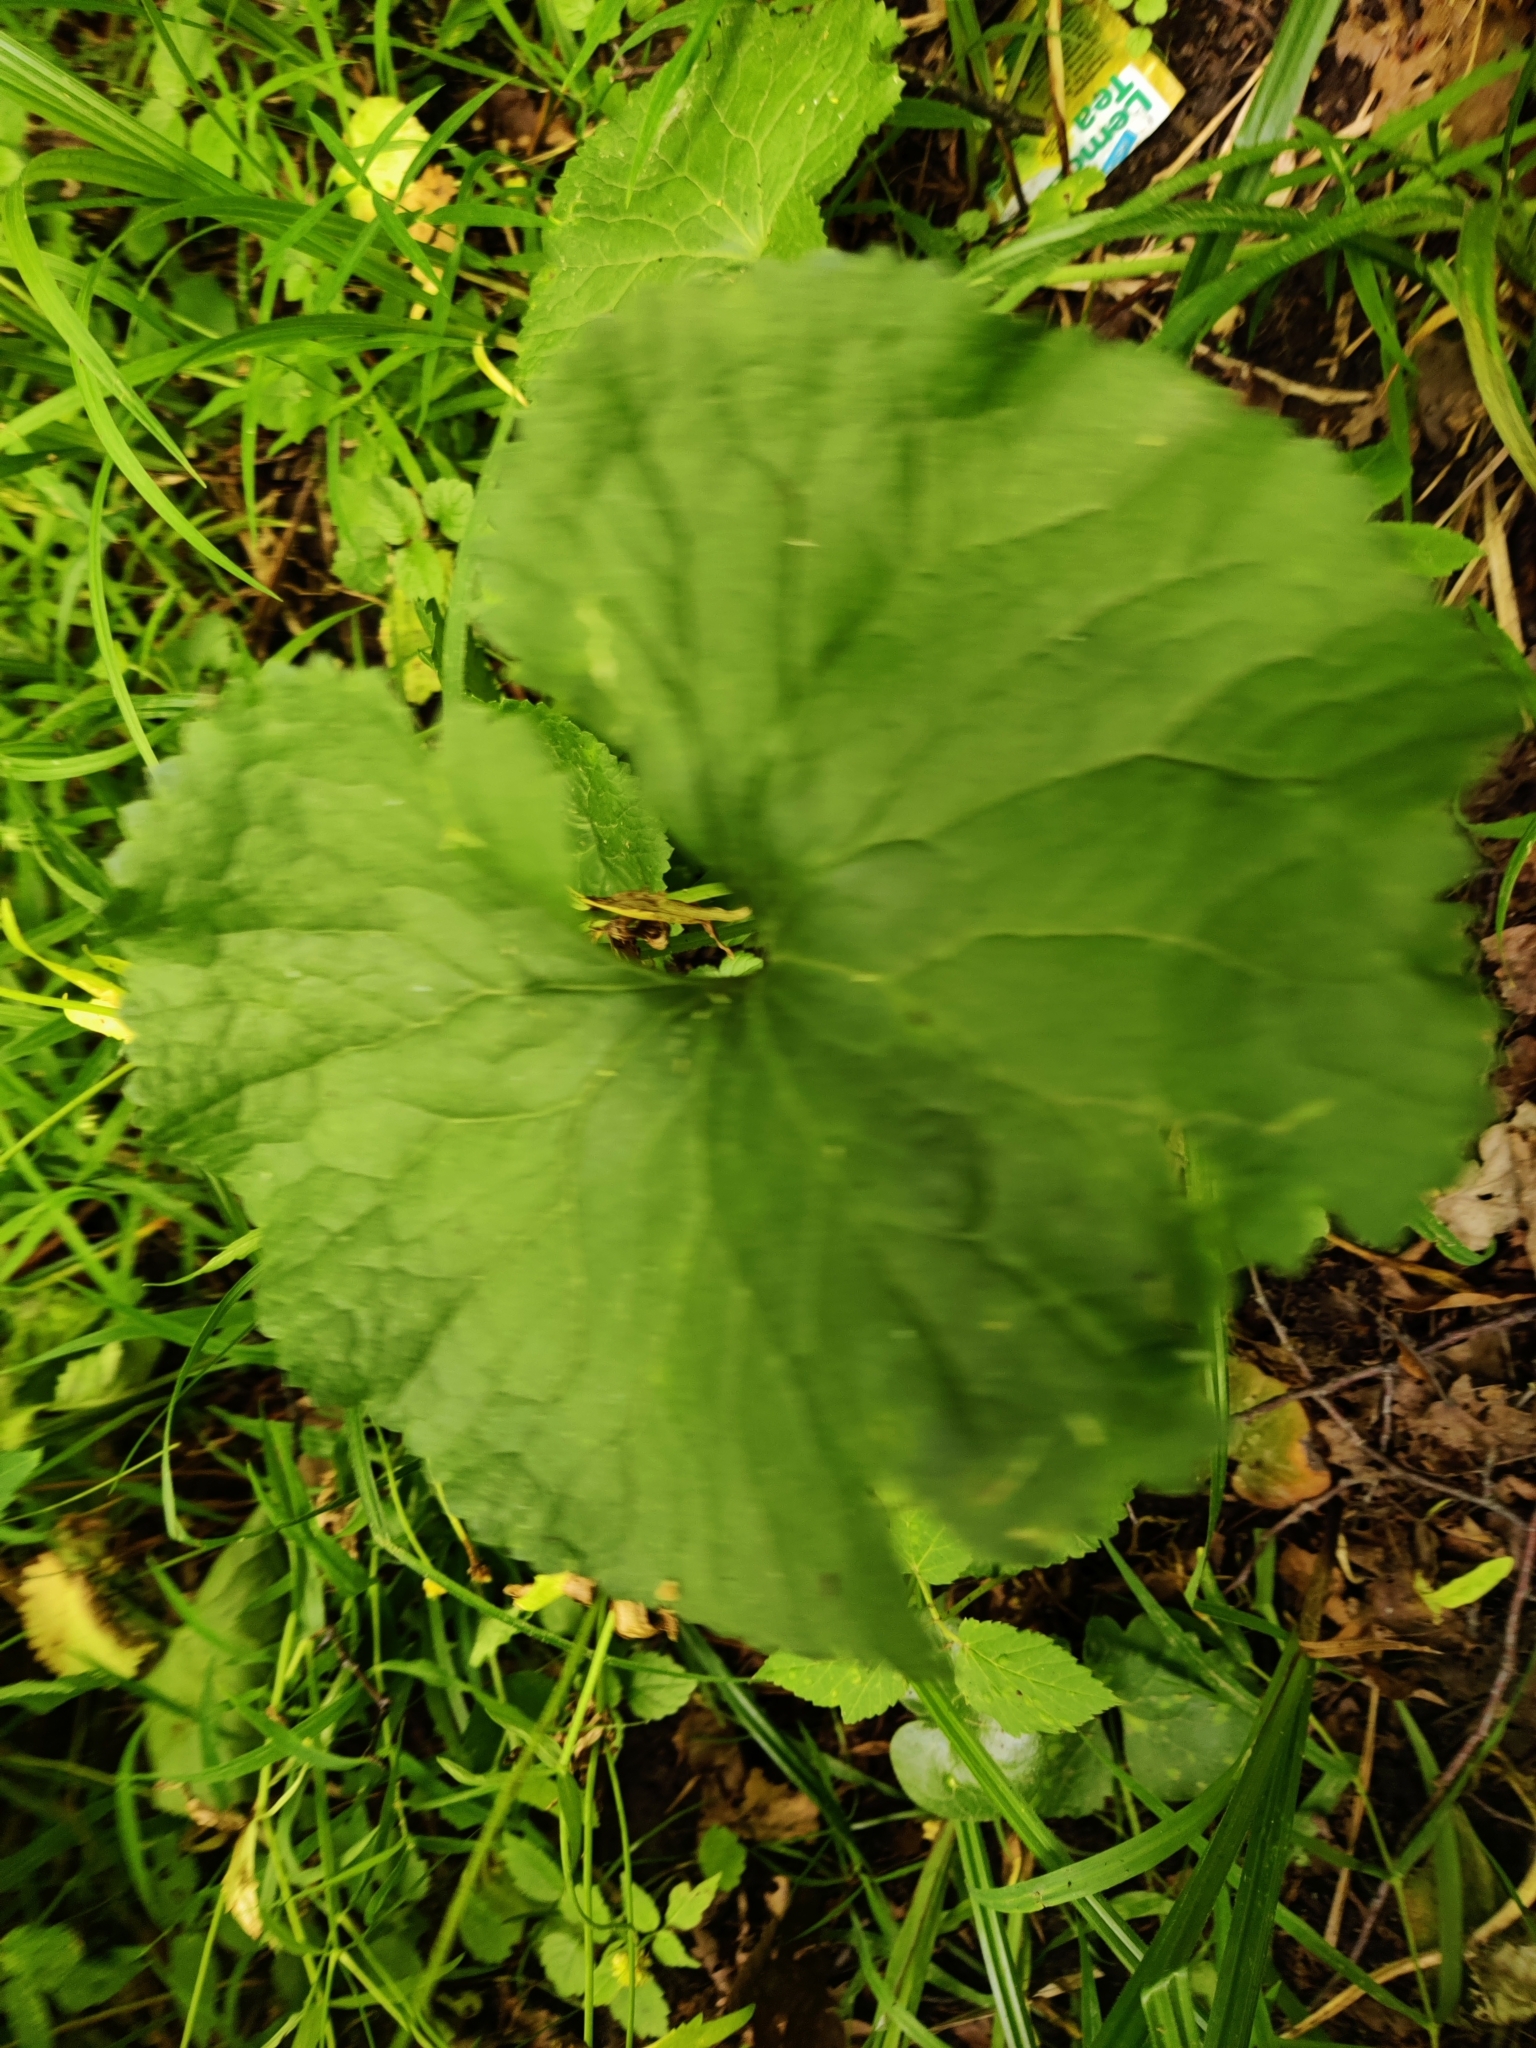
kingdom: Plantae
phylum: Tracheophyta
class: Magnoliopsida
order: Ranunculales
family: Ranunculaceae
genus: Ranunculus
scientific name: Ranunculus cassubicus
